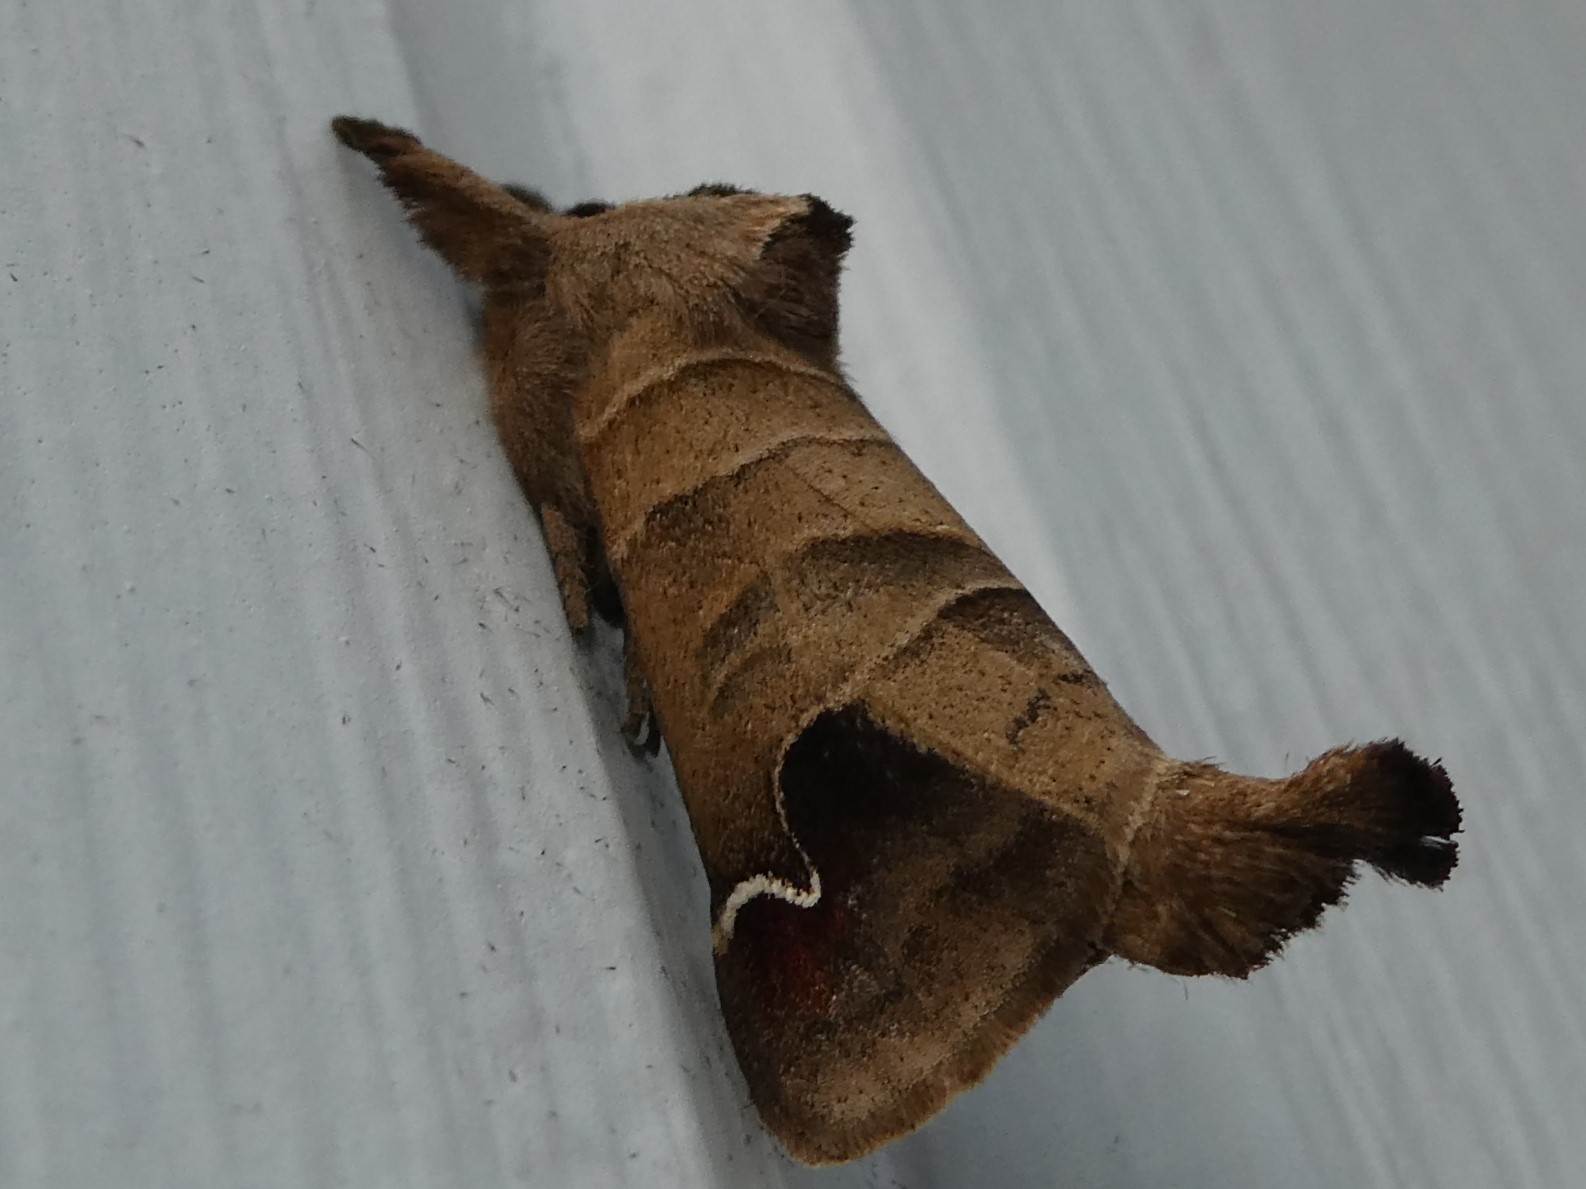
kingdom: Animalia
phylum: Arthropoda
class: Insecta
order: Lepidoptera
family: Notodontidae
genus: Clostera
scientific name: Clostera albosigma
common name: Sigmoid prominent
